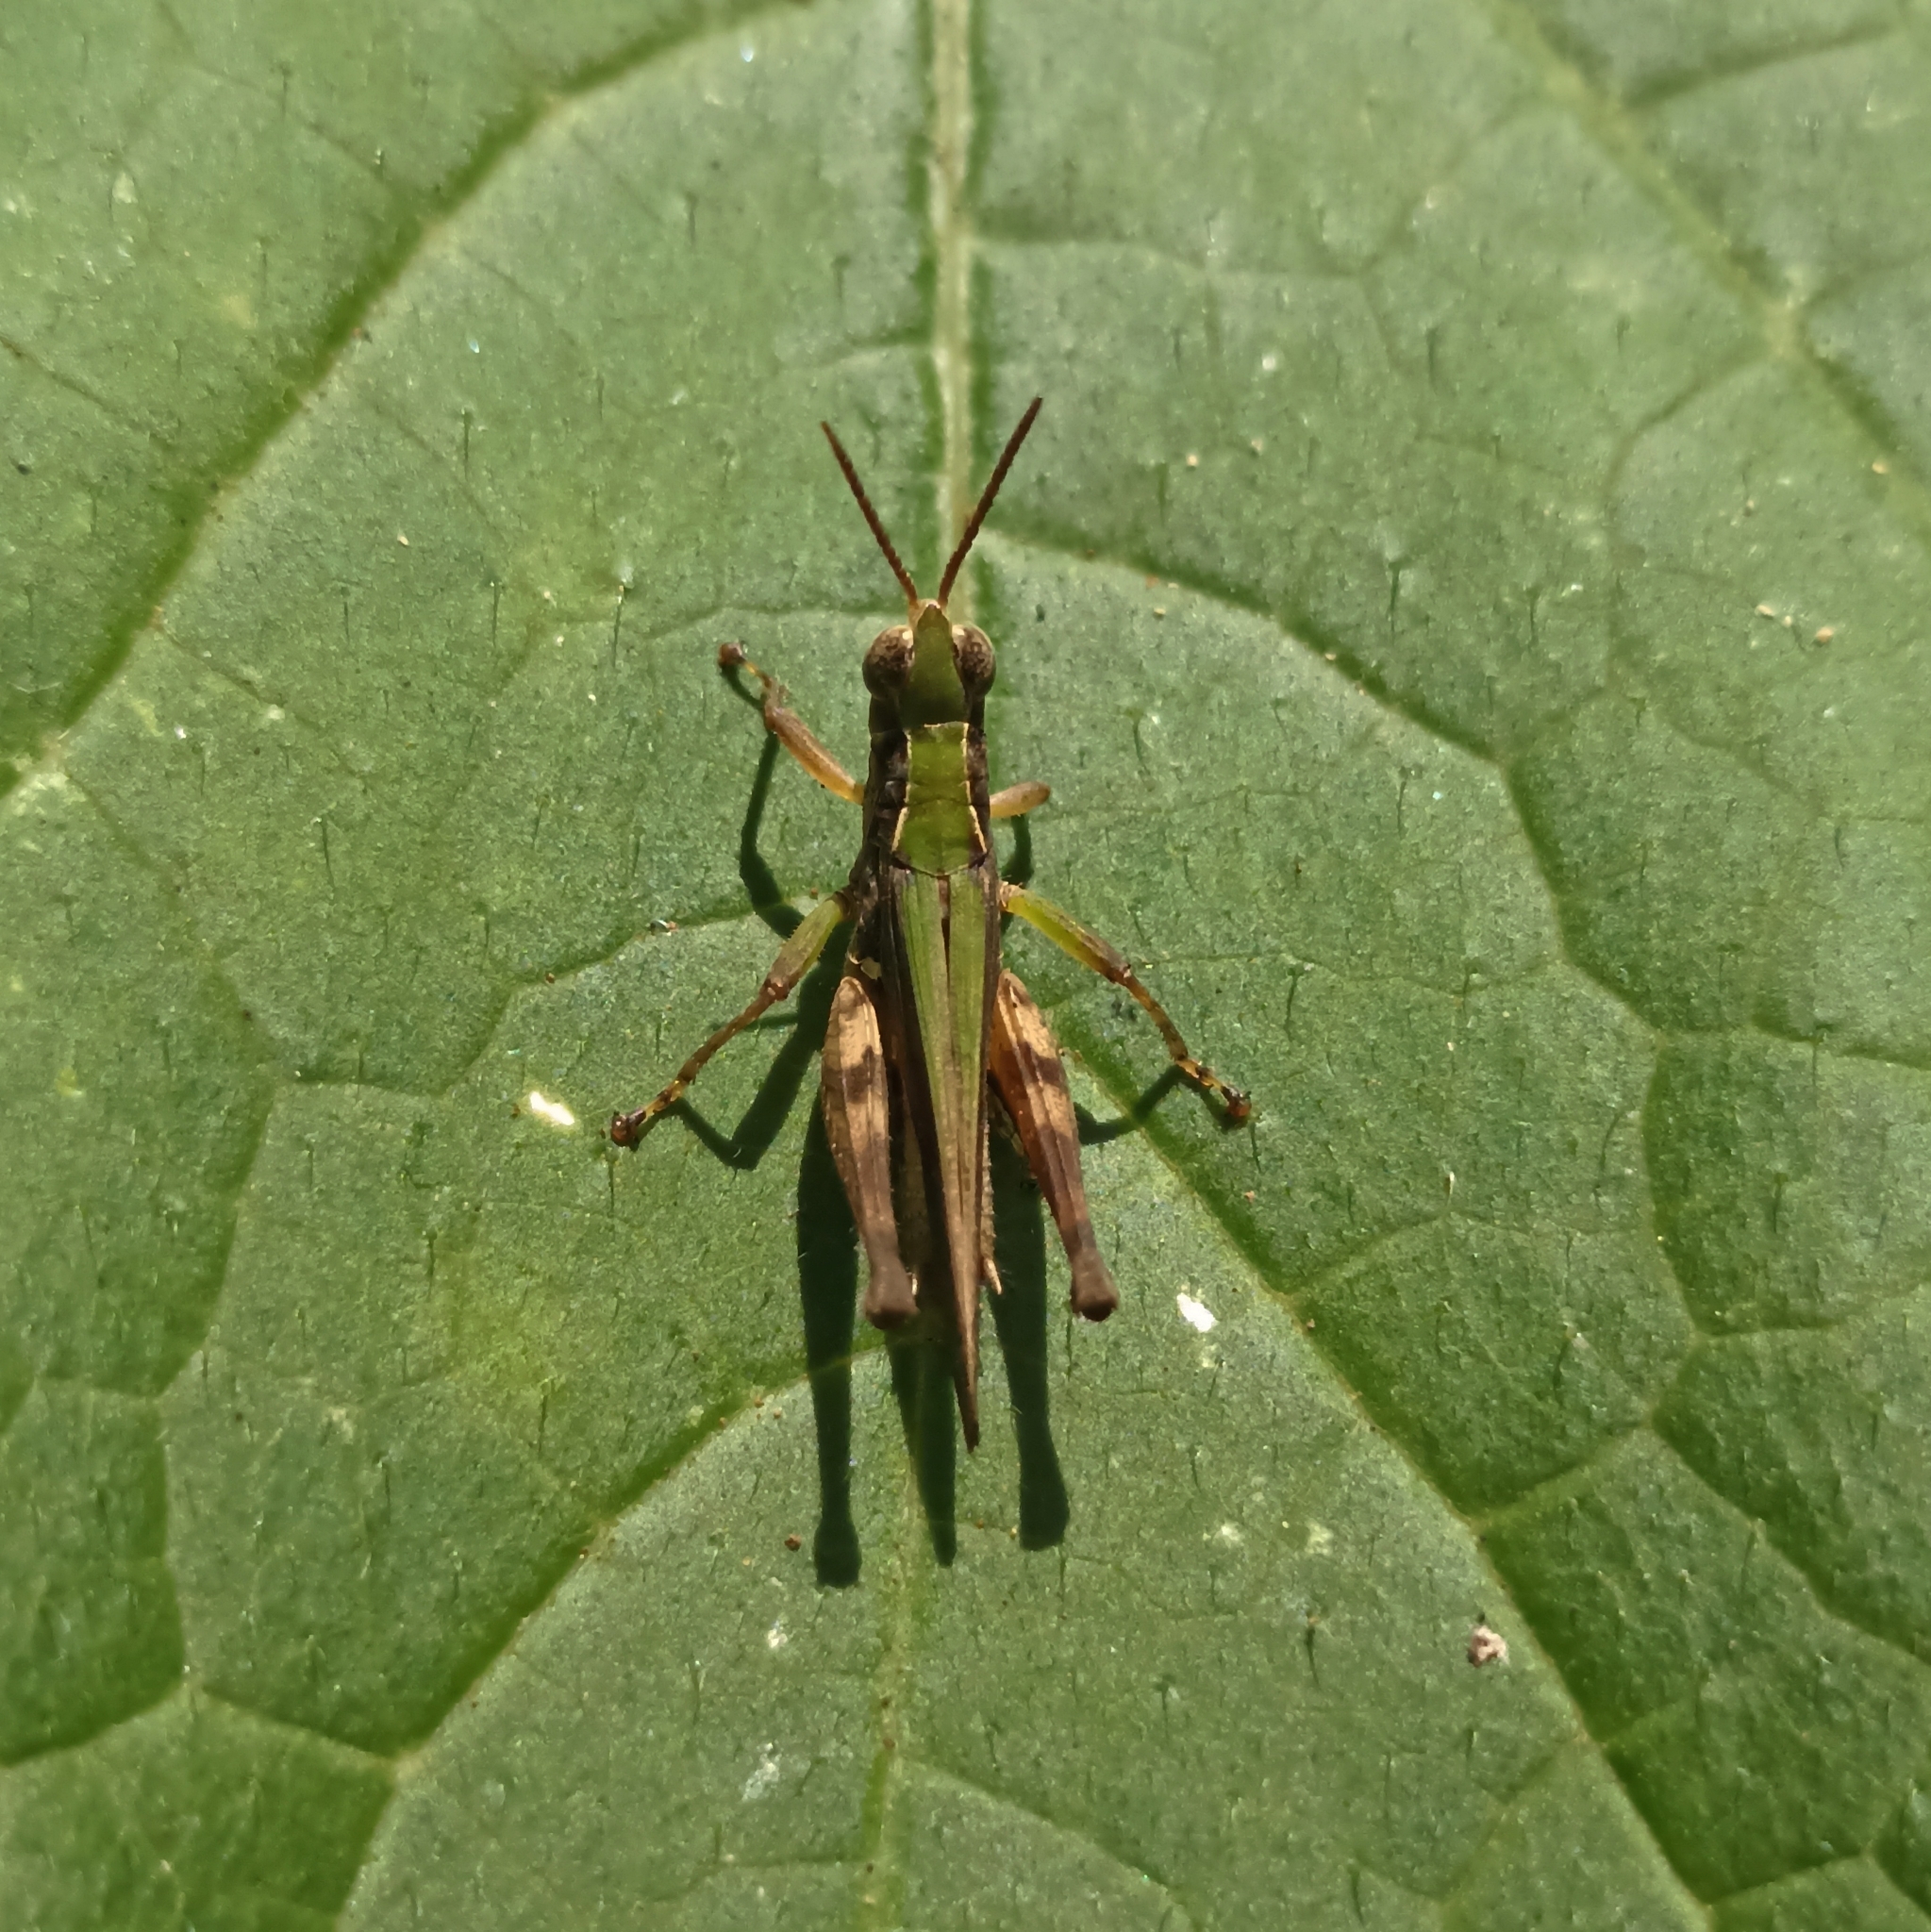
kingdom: Animalia
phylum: Arthropoda
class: Insecta
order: Orthoptera
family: Acrididae
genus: Orphulella
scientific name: Orphulella punctata
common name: Slant-faced grasshopper
